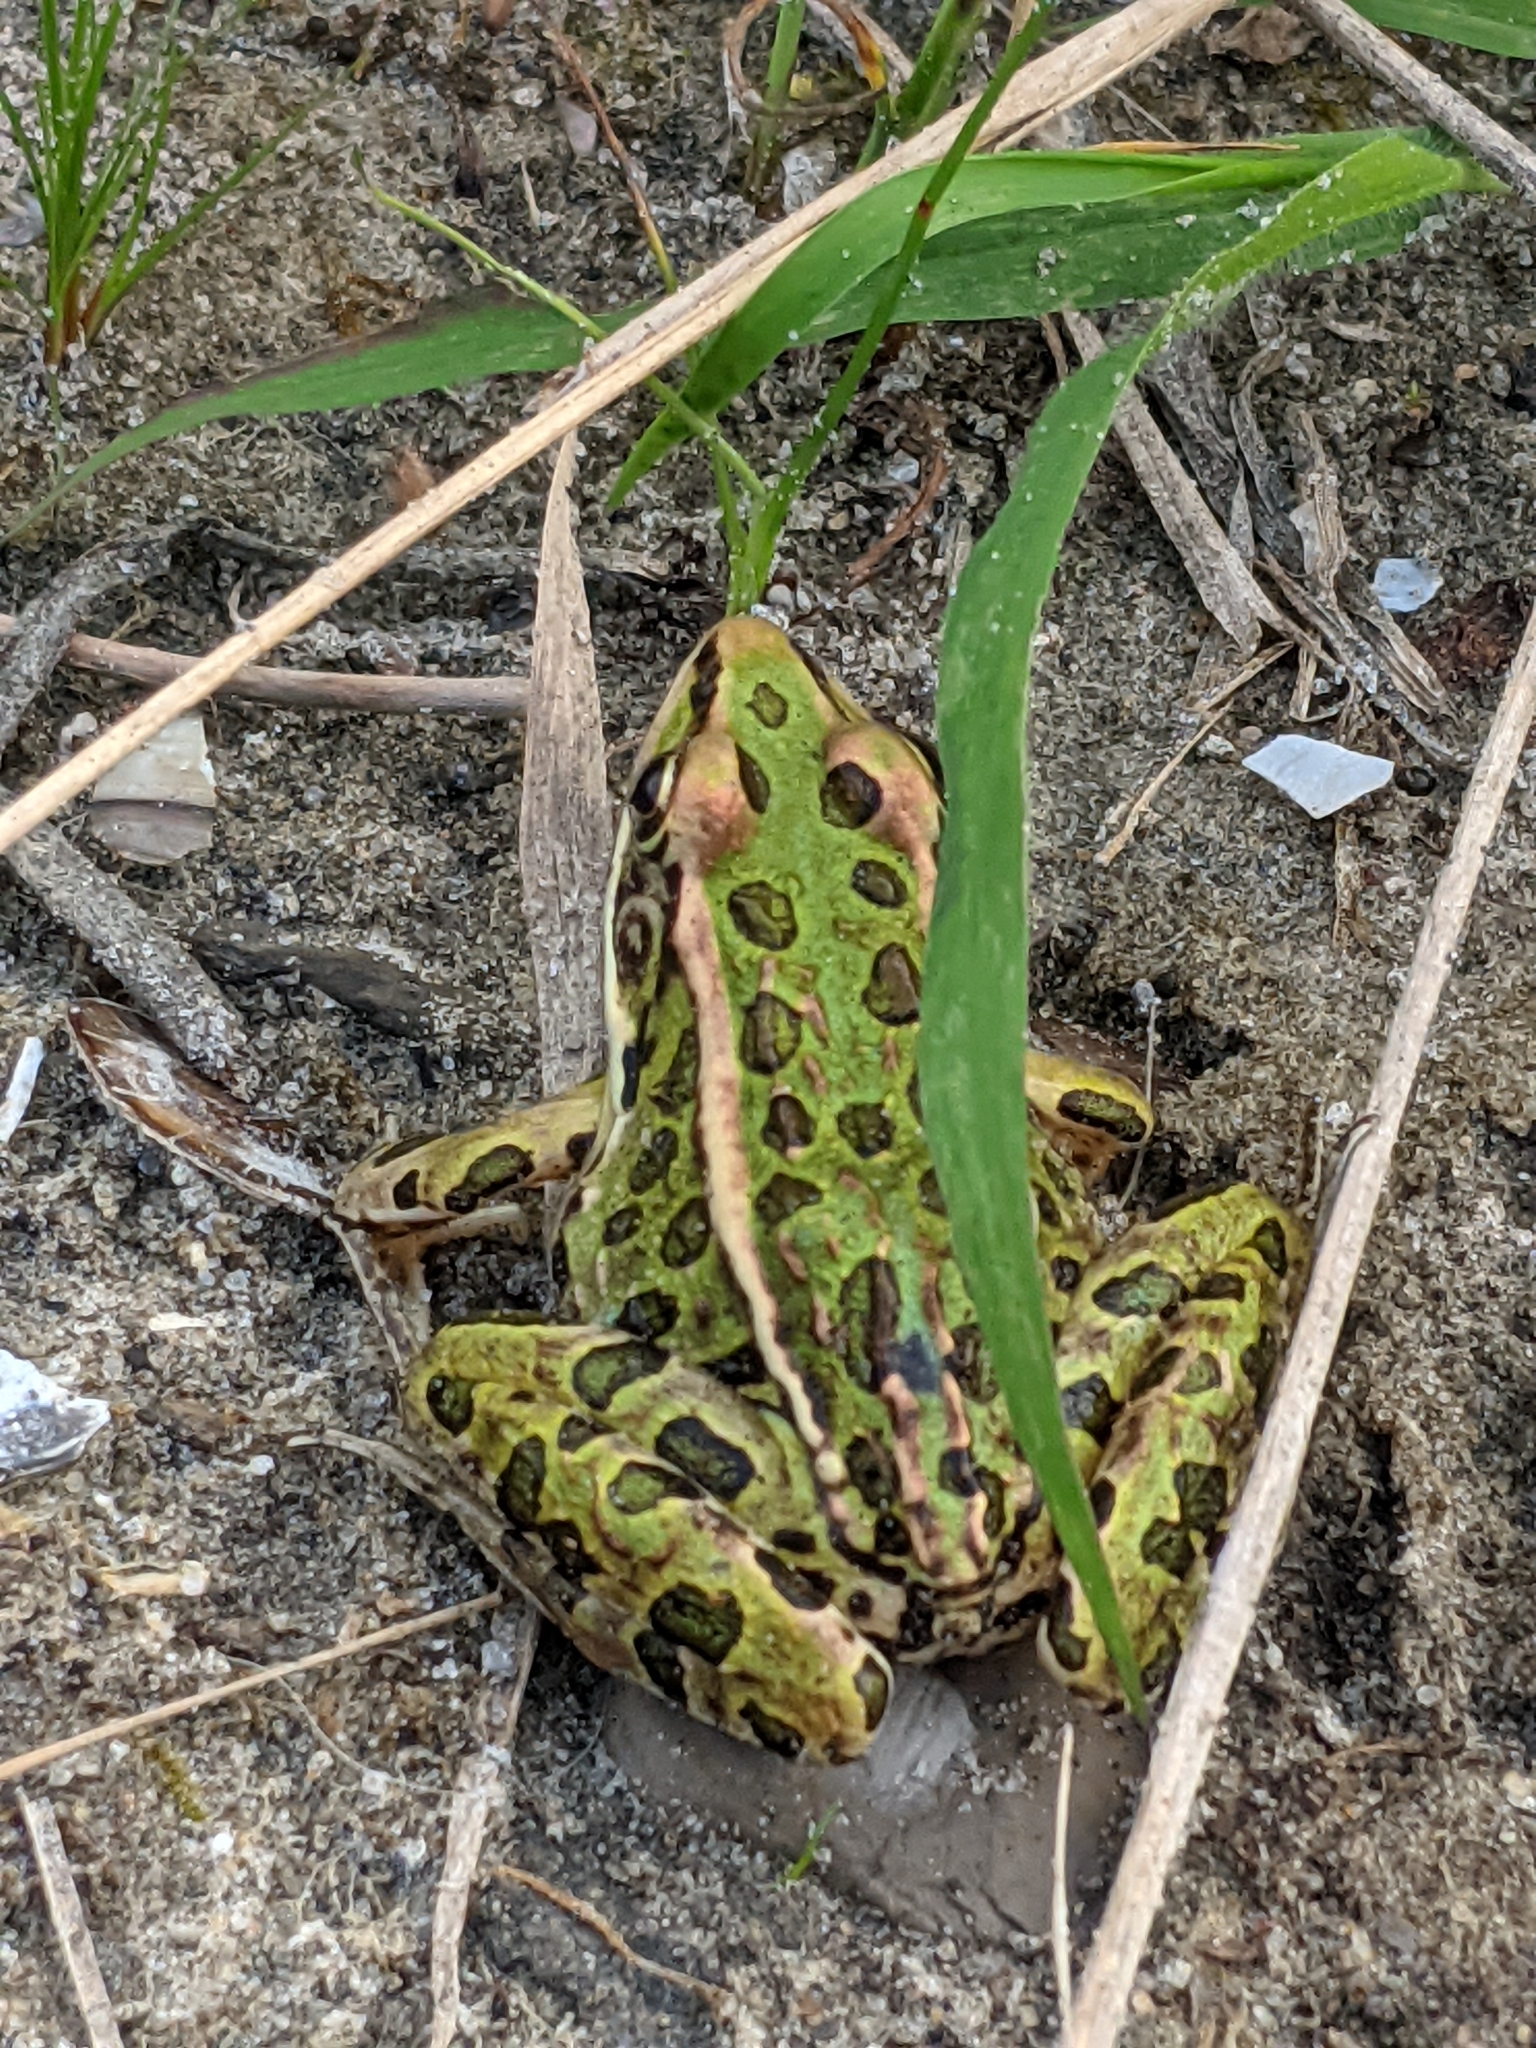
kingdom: Animalia
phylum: Chordata
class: Amphibia
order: Anura
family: Ranidae
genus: Lithobates
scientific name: Lithobates pipiens
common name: Northern leopard frog
